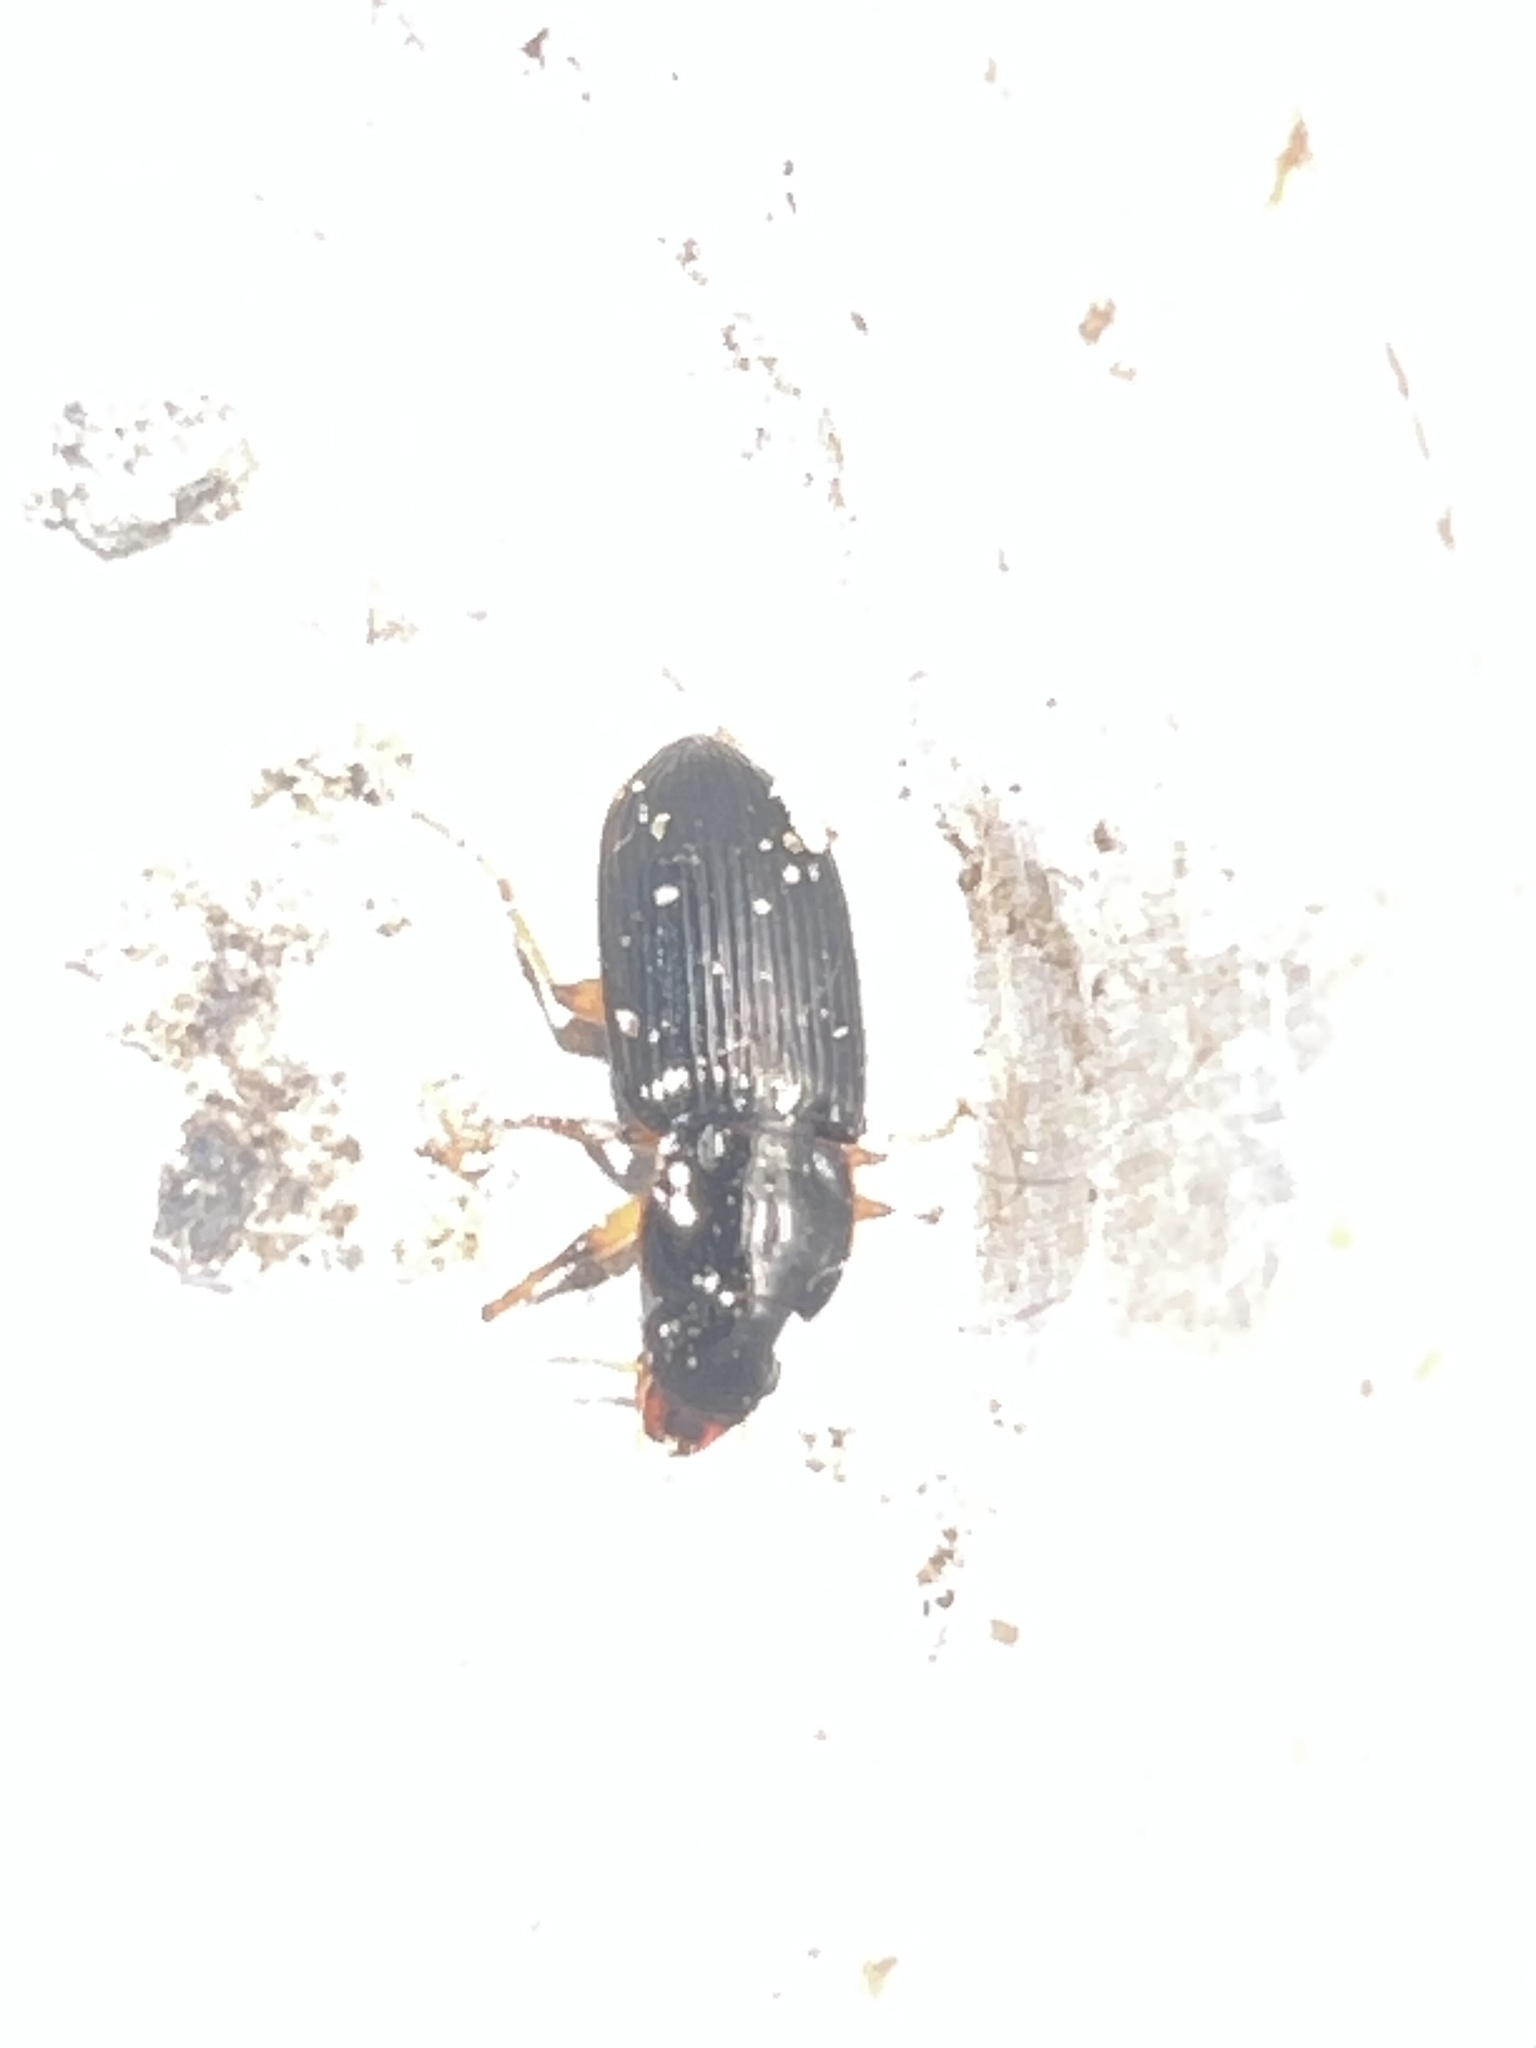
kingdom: Animalia
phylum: Arthropoda
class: Insecta
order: Coleoptera
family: Carabidae
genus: Harpalus
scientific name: Harpalus pensylvanicus
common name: Pennsylvania dingy ground beetle
